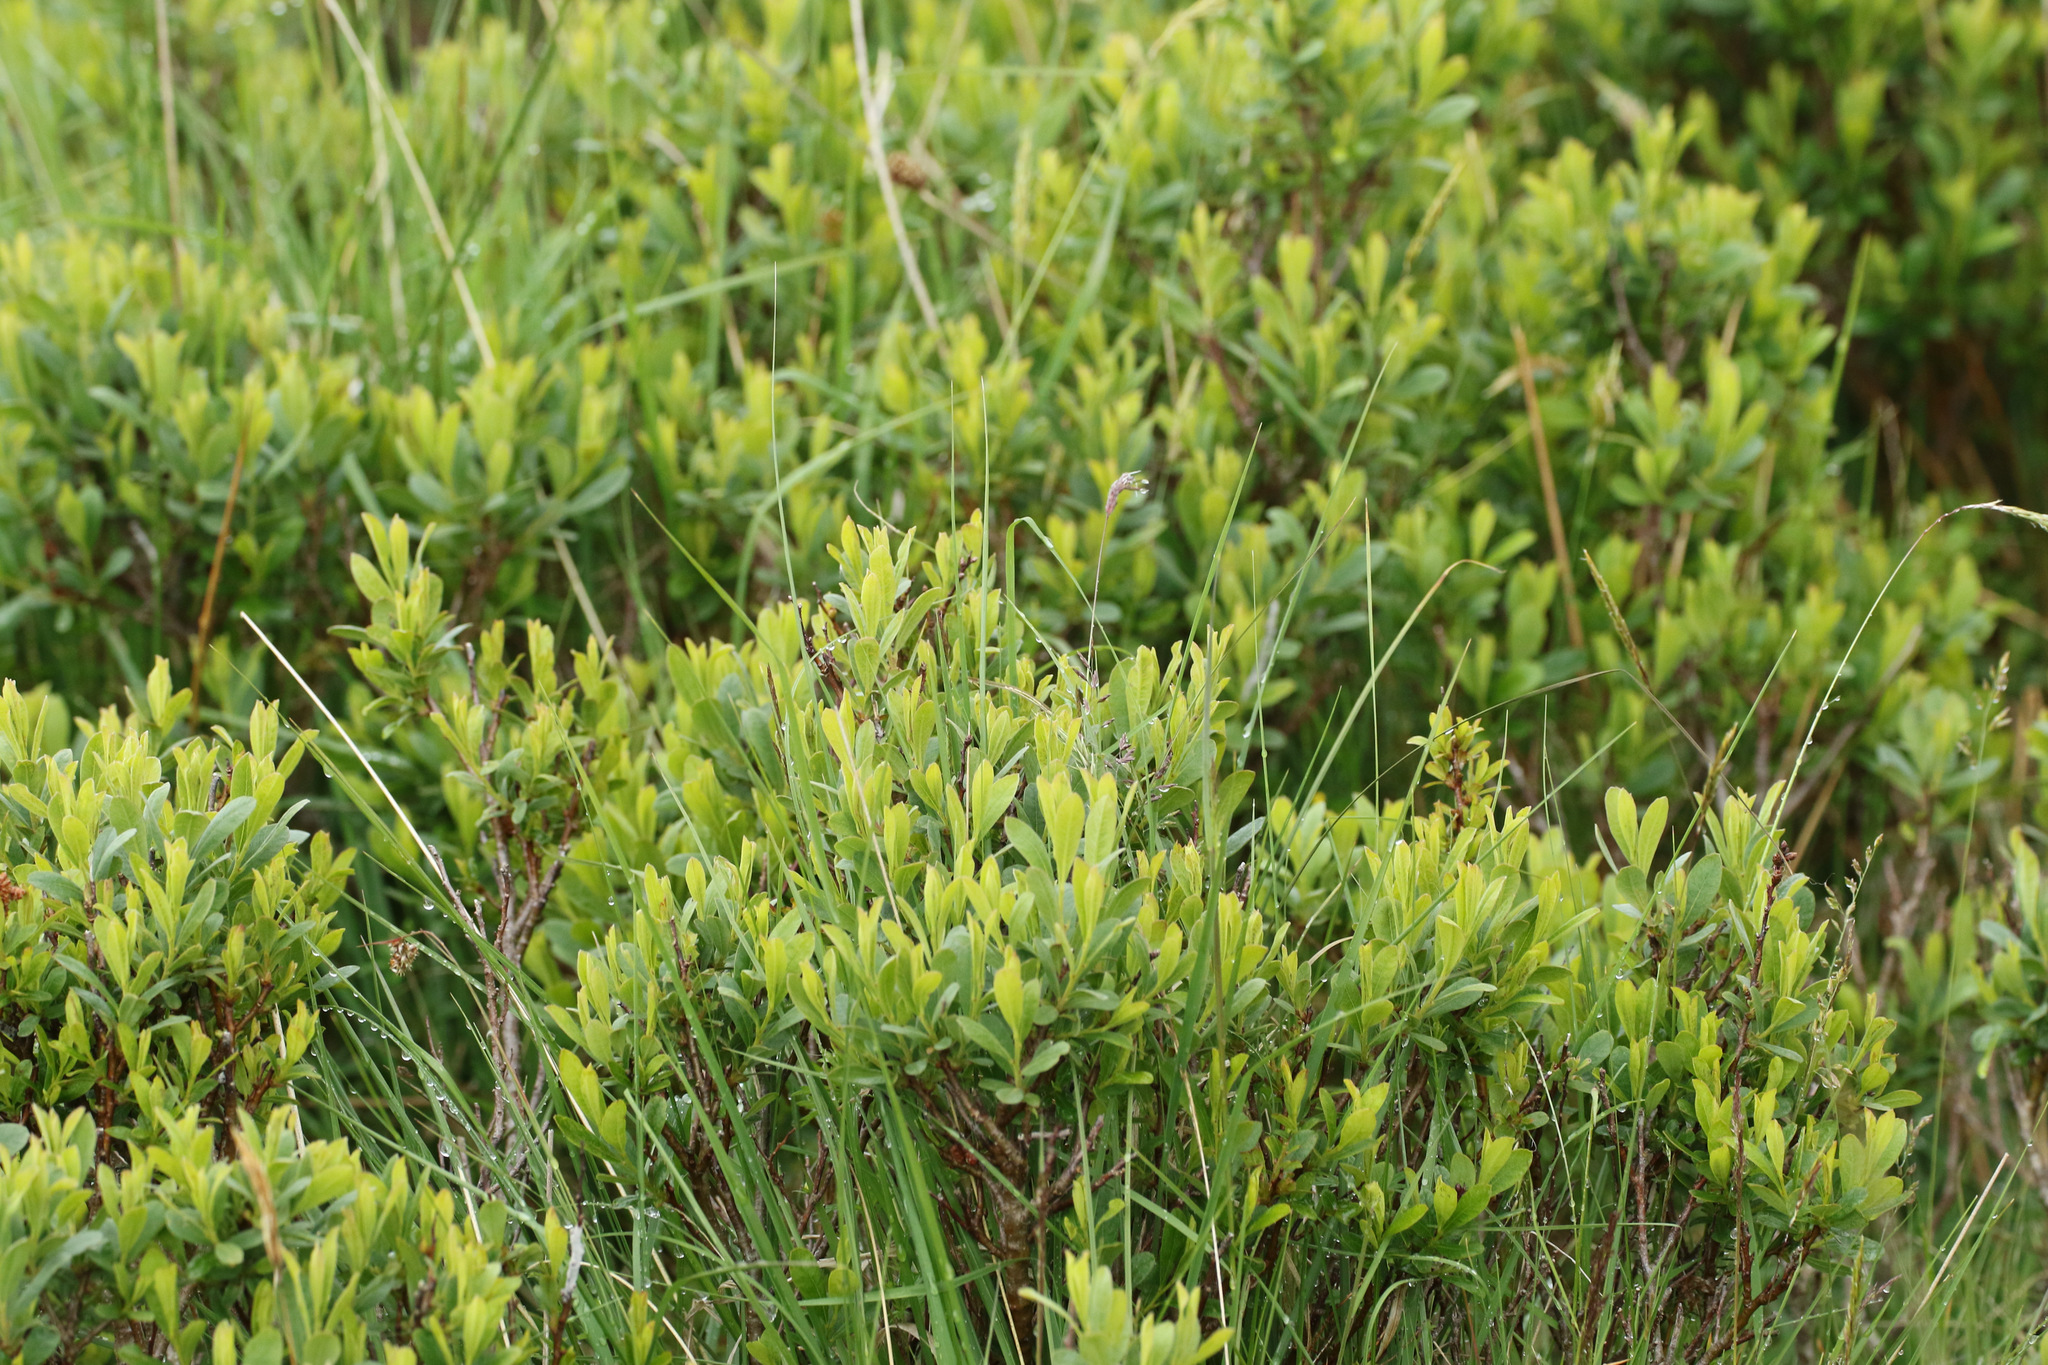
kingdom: Plantae
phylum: Tracheophyta
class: Magnoliopsida
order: Fagales
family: Myricaceae
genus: Myrica
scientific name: Myrica gale
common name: Sweet gale
